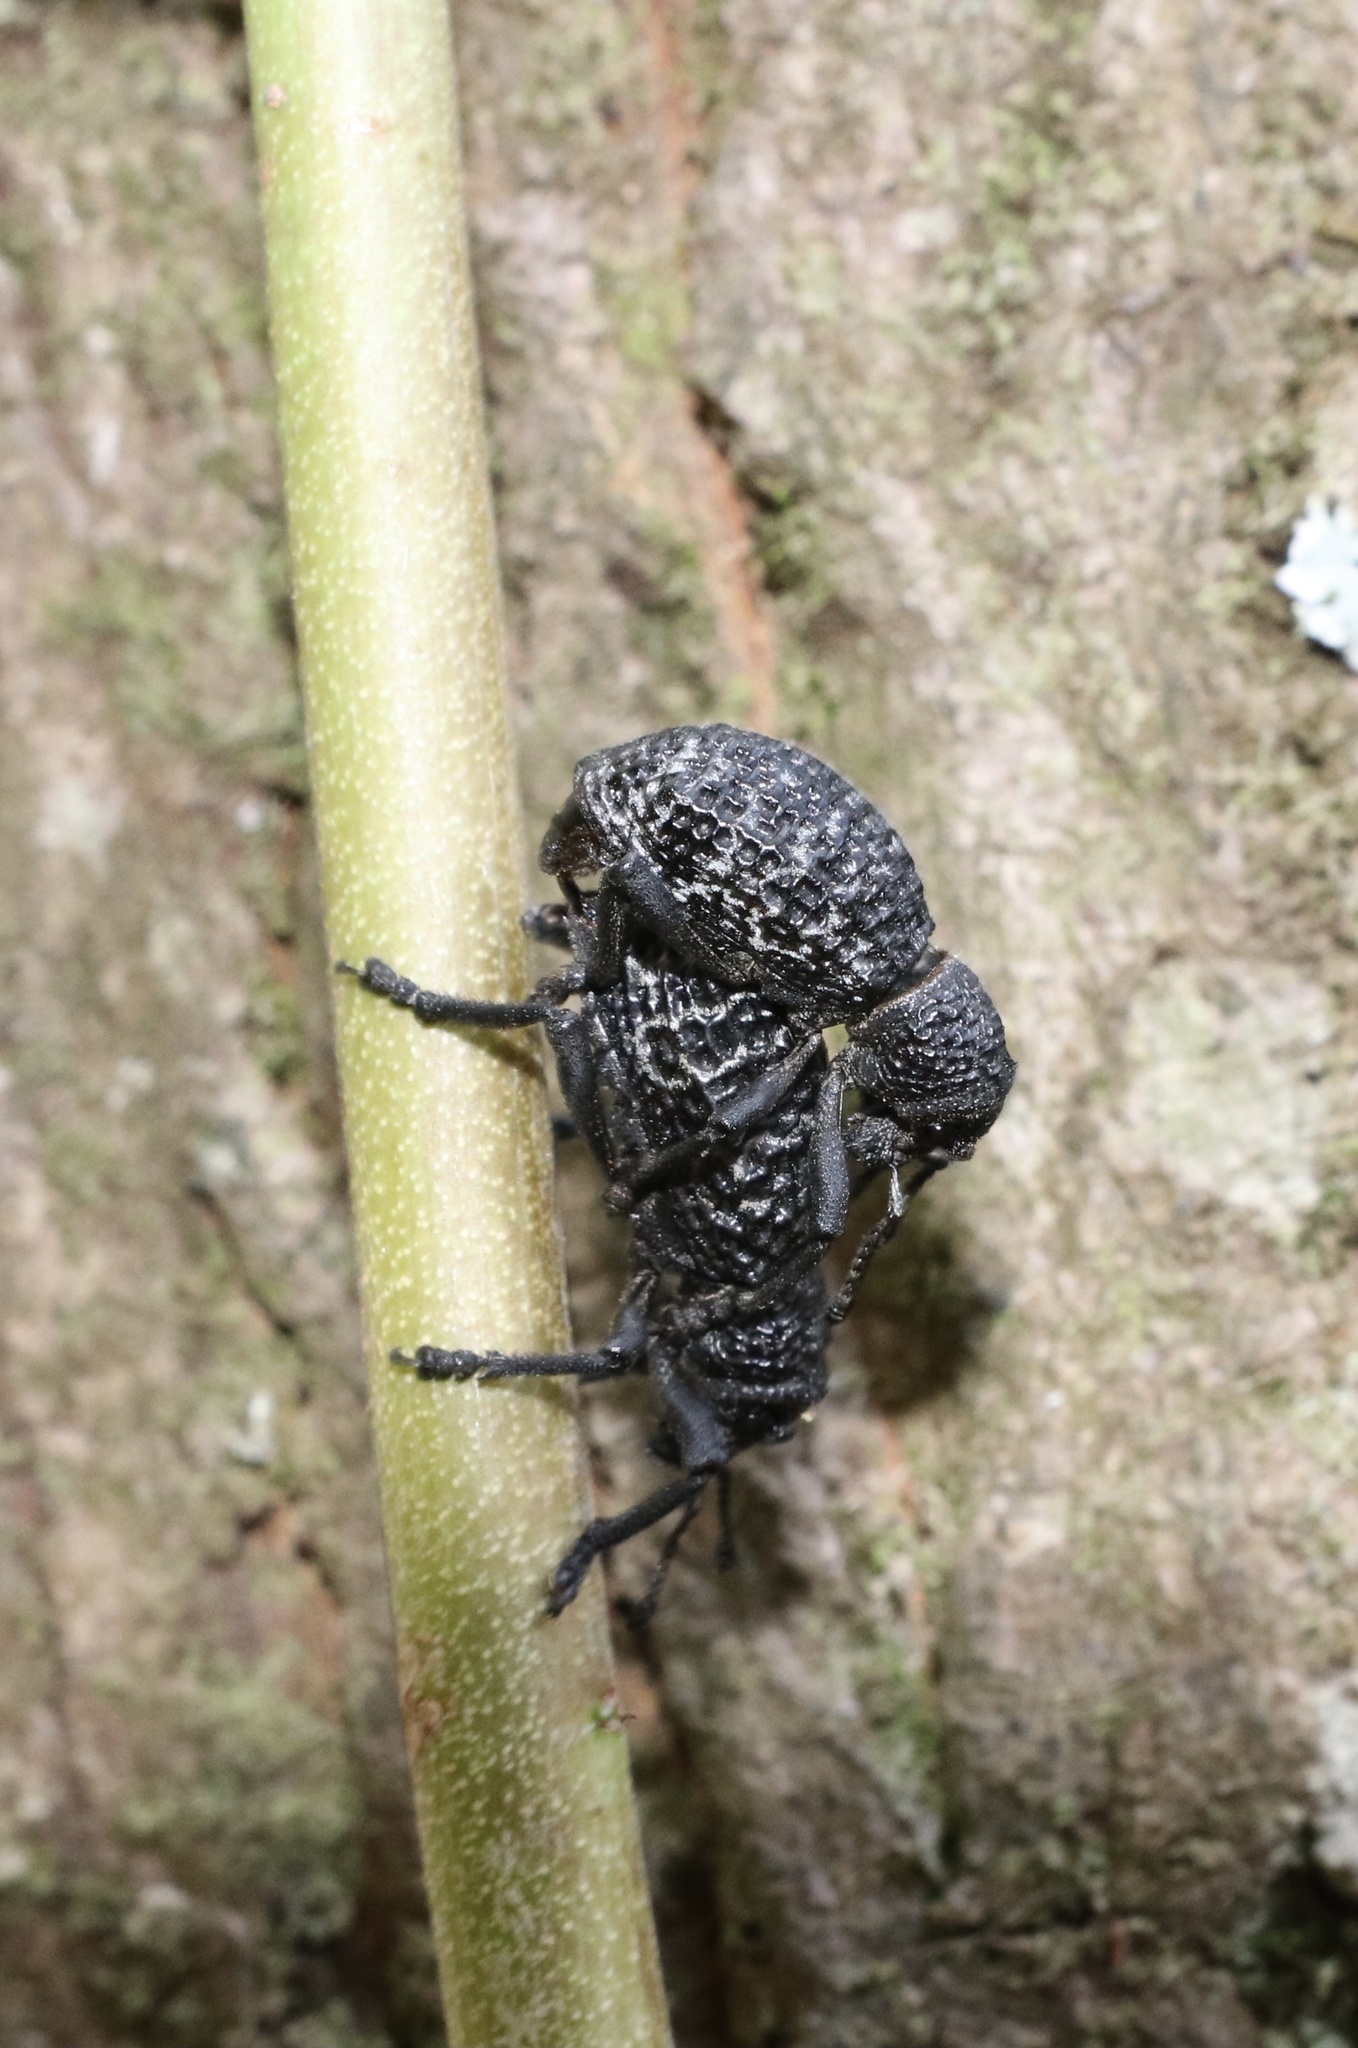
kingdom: Animalia
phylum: Arthropoda
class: Insecta
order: Coleoptera
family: Curculionidae
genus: Aegorhinus
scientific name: Aegorhinus superciliosus
